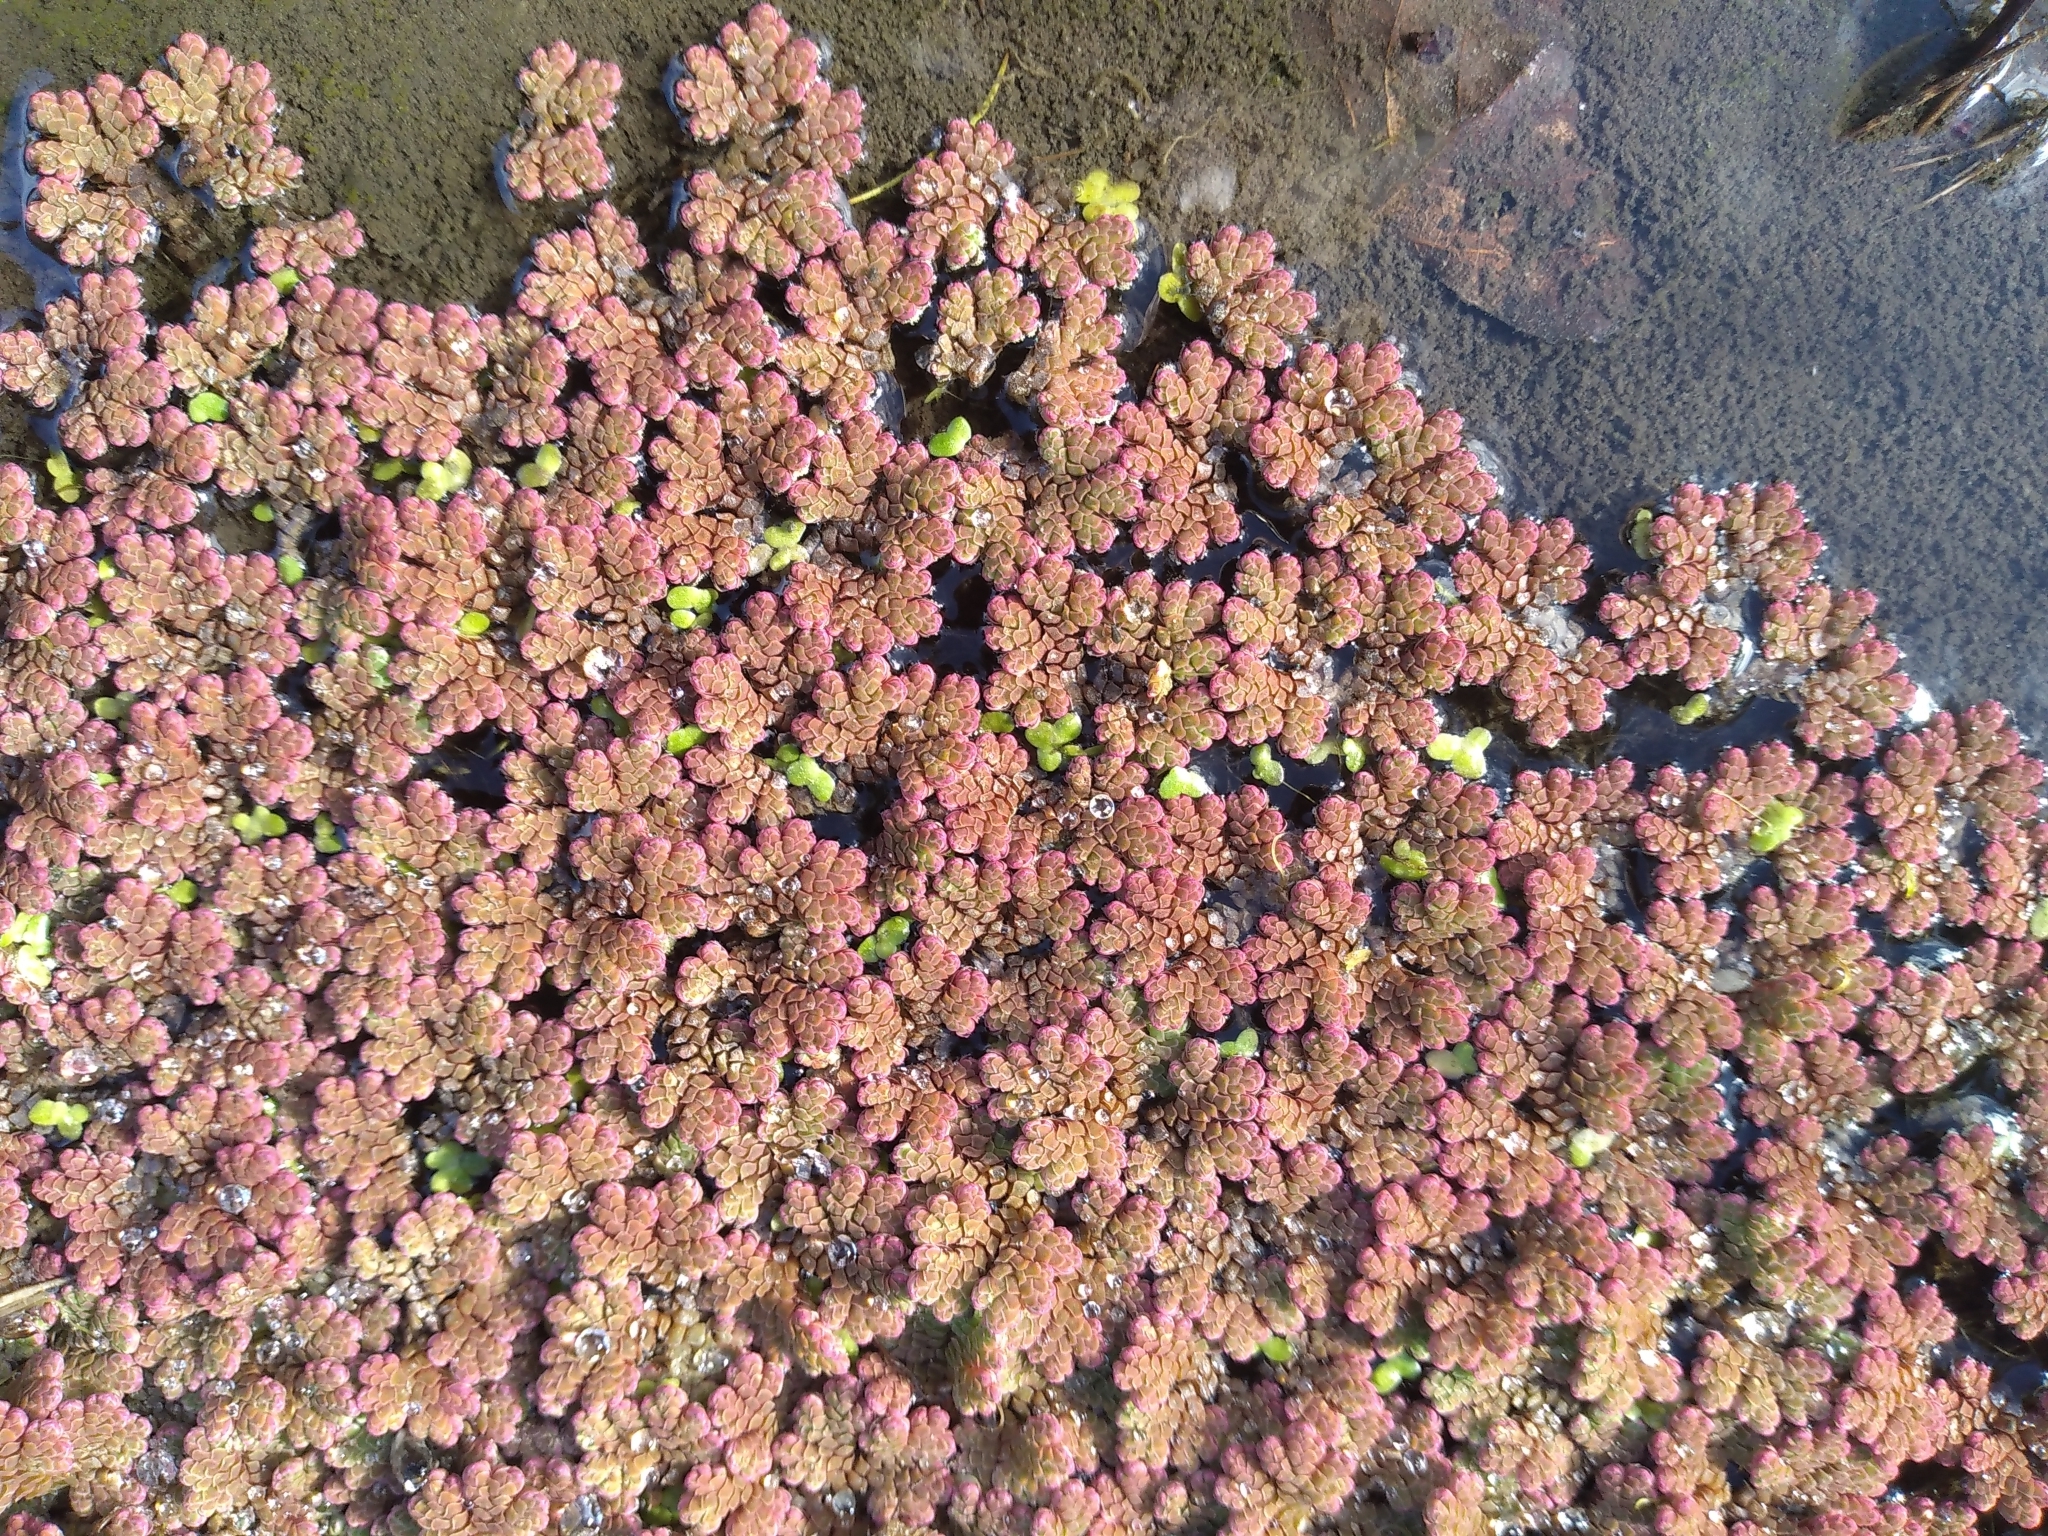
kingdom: Plantae
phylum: Tracheophyta
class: Polypodiopsida
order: Salviniales
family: Salviniaceae
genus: Azolla
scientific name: Azolla rubra
